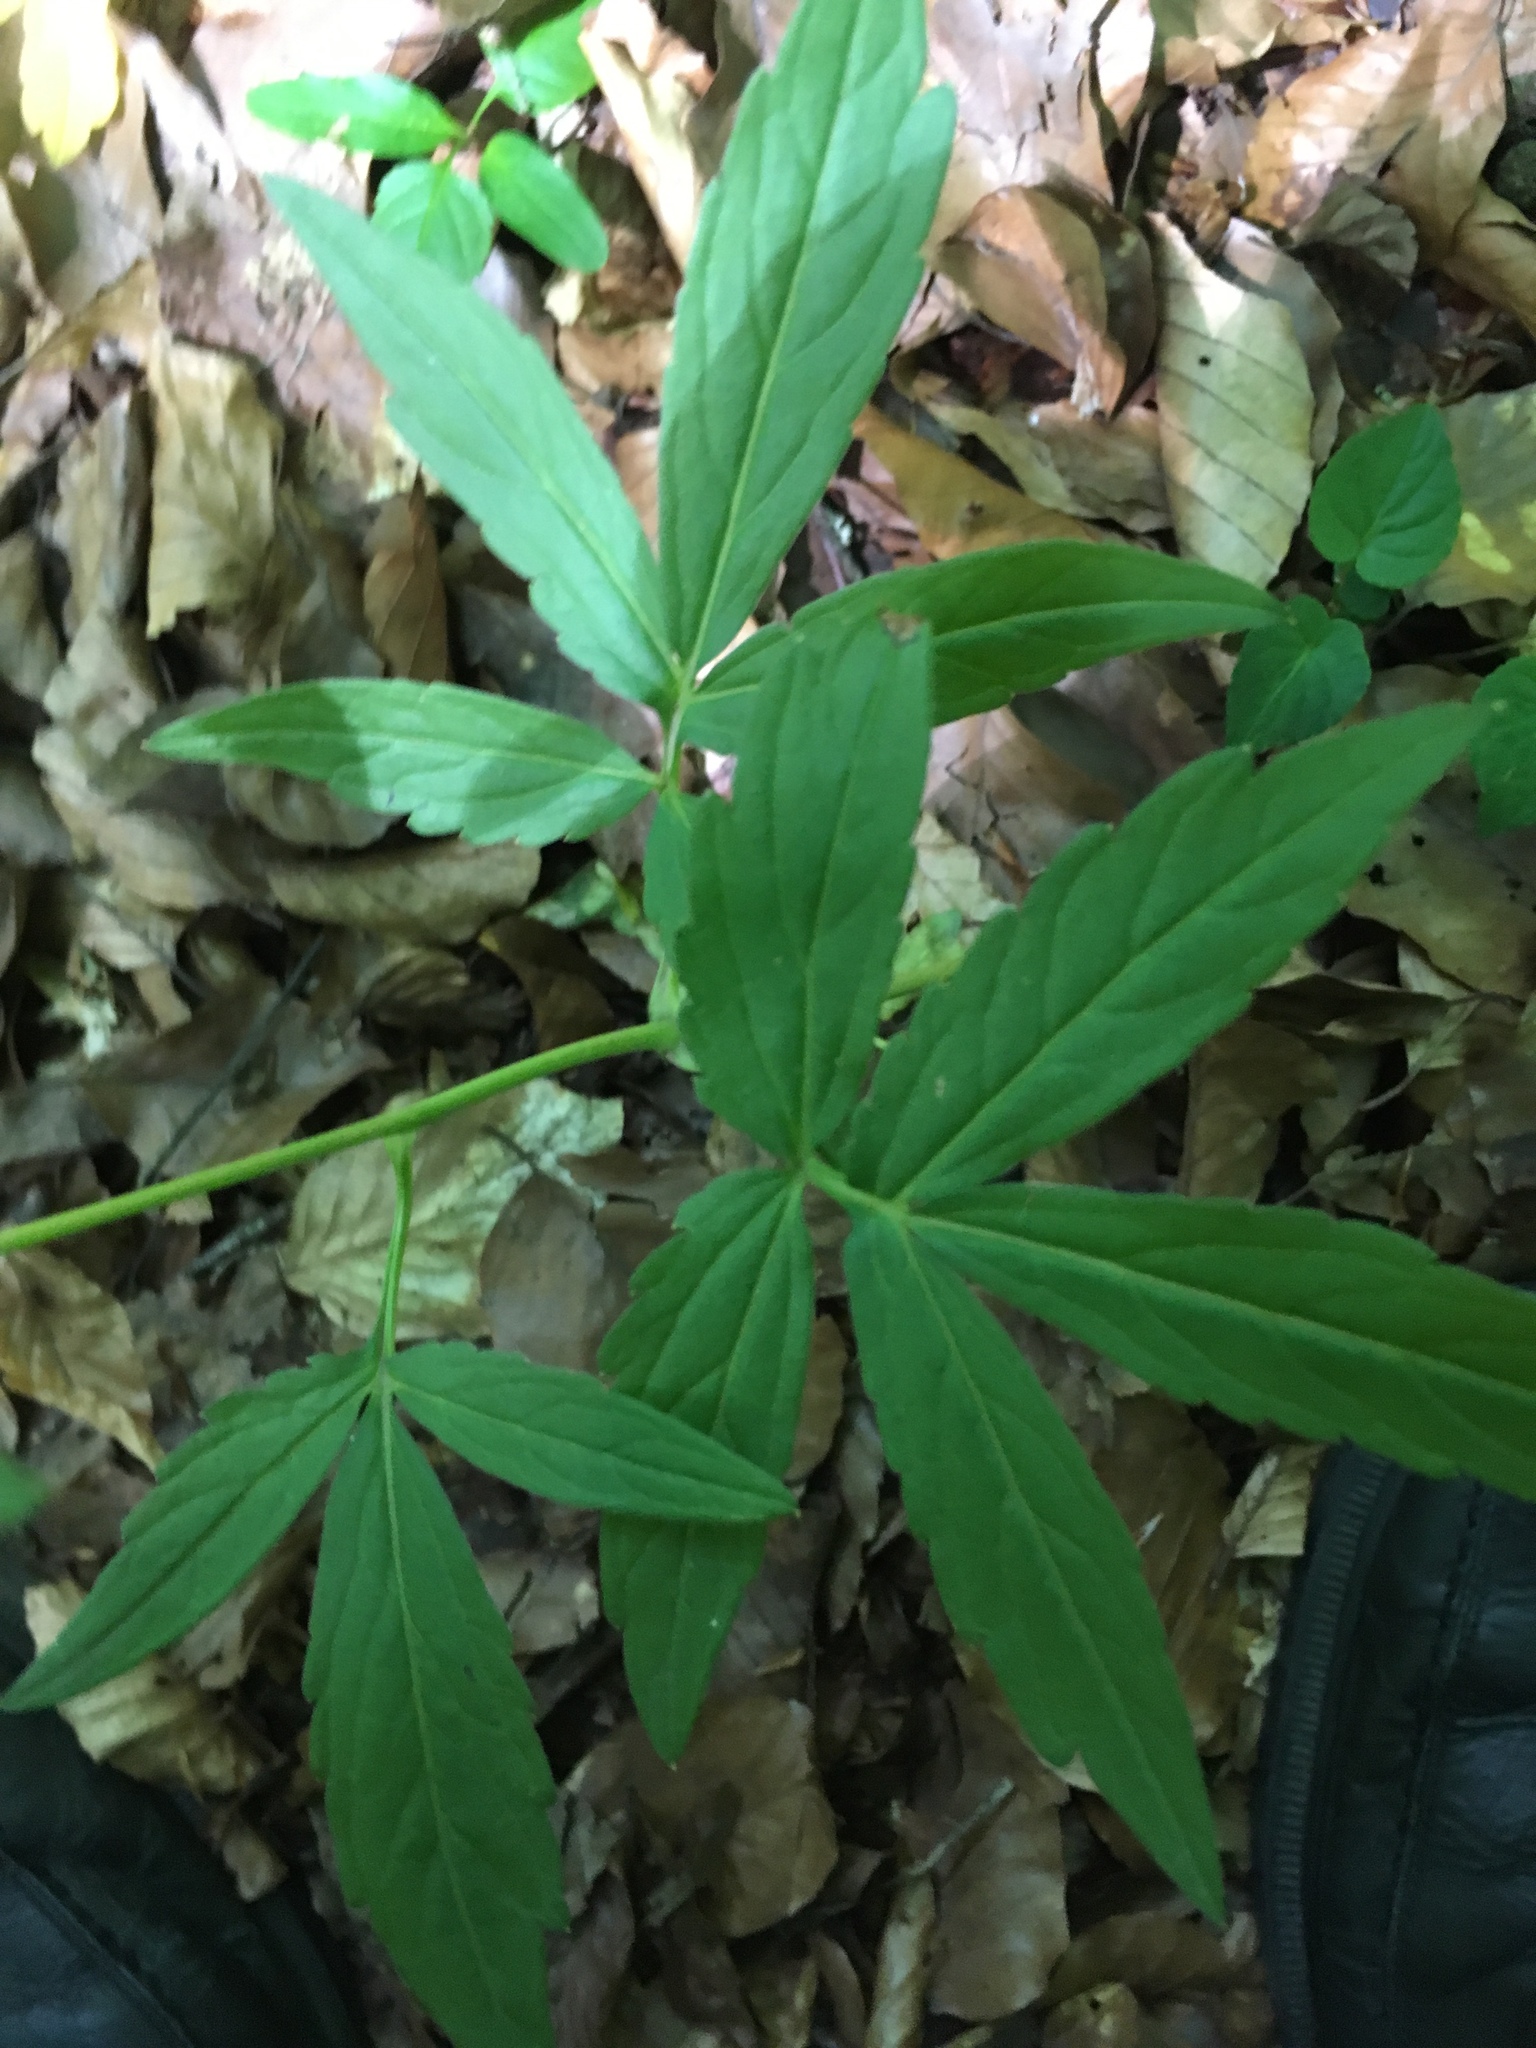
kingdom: Plantae
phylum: Tracheophyta
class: Magnoliopsida
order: Brassicales
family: Brassicaceae
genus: Cardamine
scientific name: Cardamine bulbifera
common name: Coralroot bittercress
